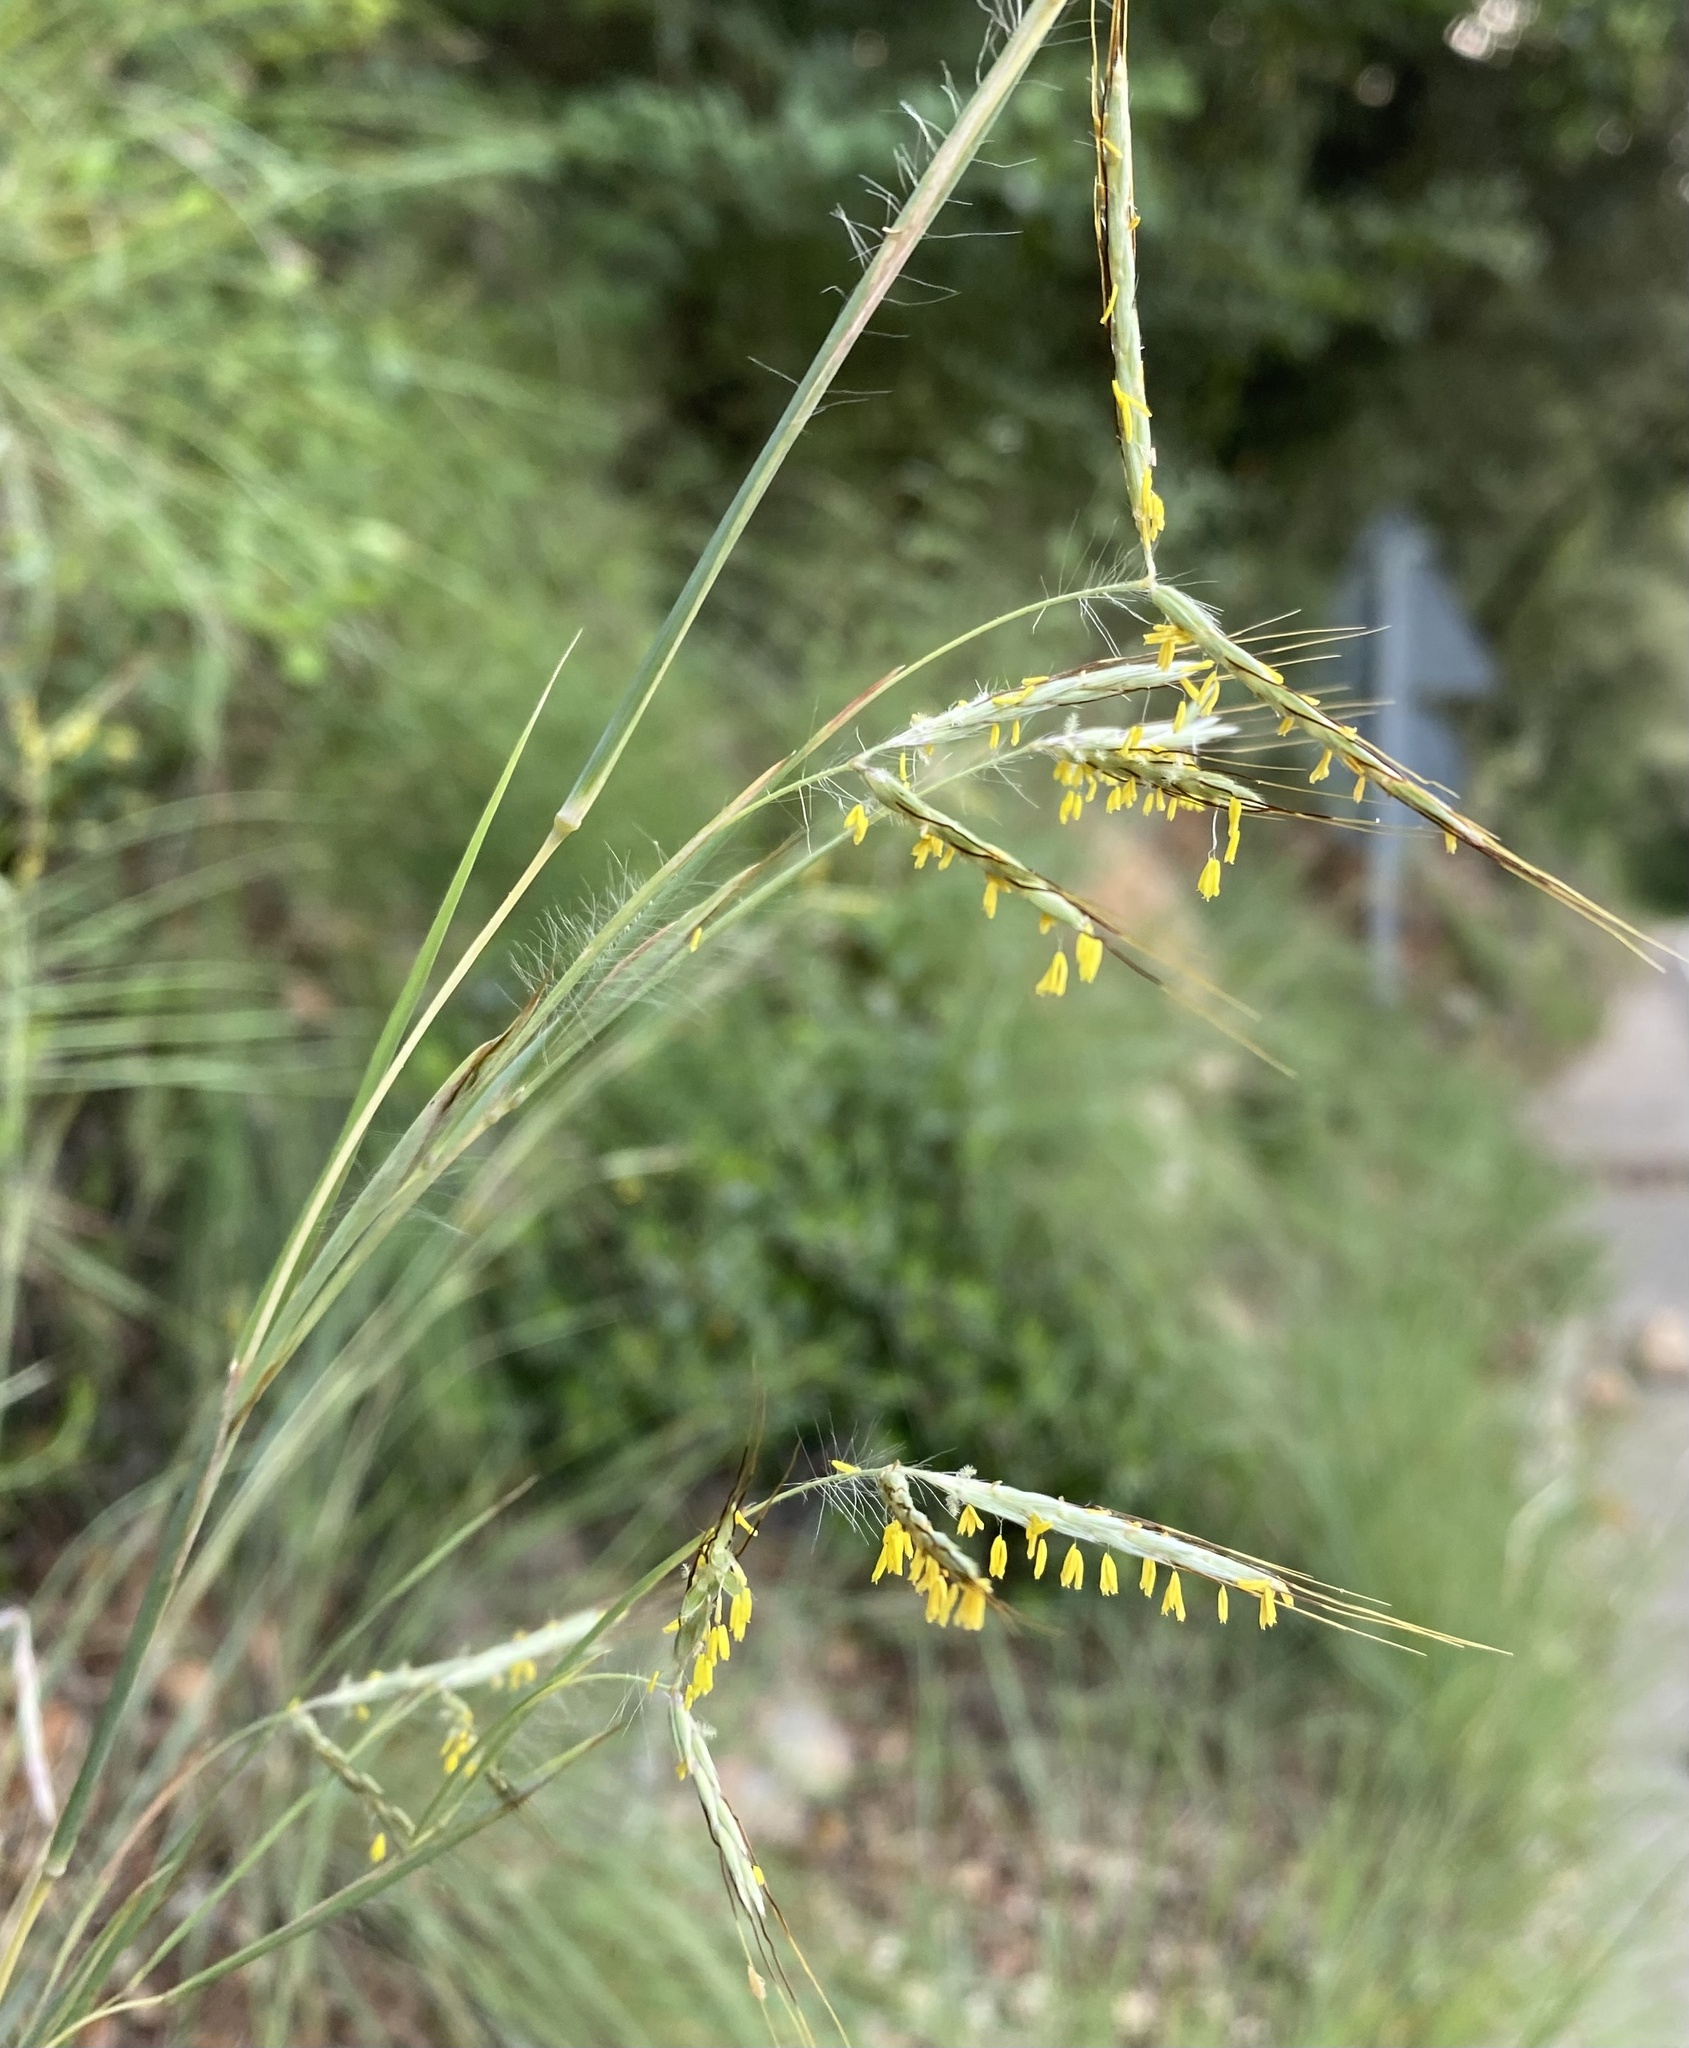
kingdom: Plantae
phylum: Tracheophyta
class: Liliopsida
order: Poales
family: Poaceae
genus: Hyparrhenia
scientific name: Hyparrhenia hirta
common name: Thatching grass
